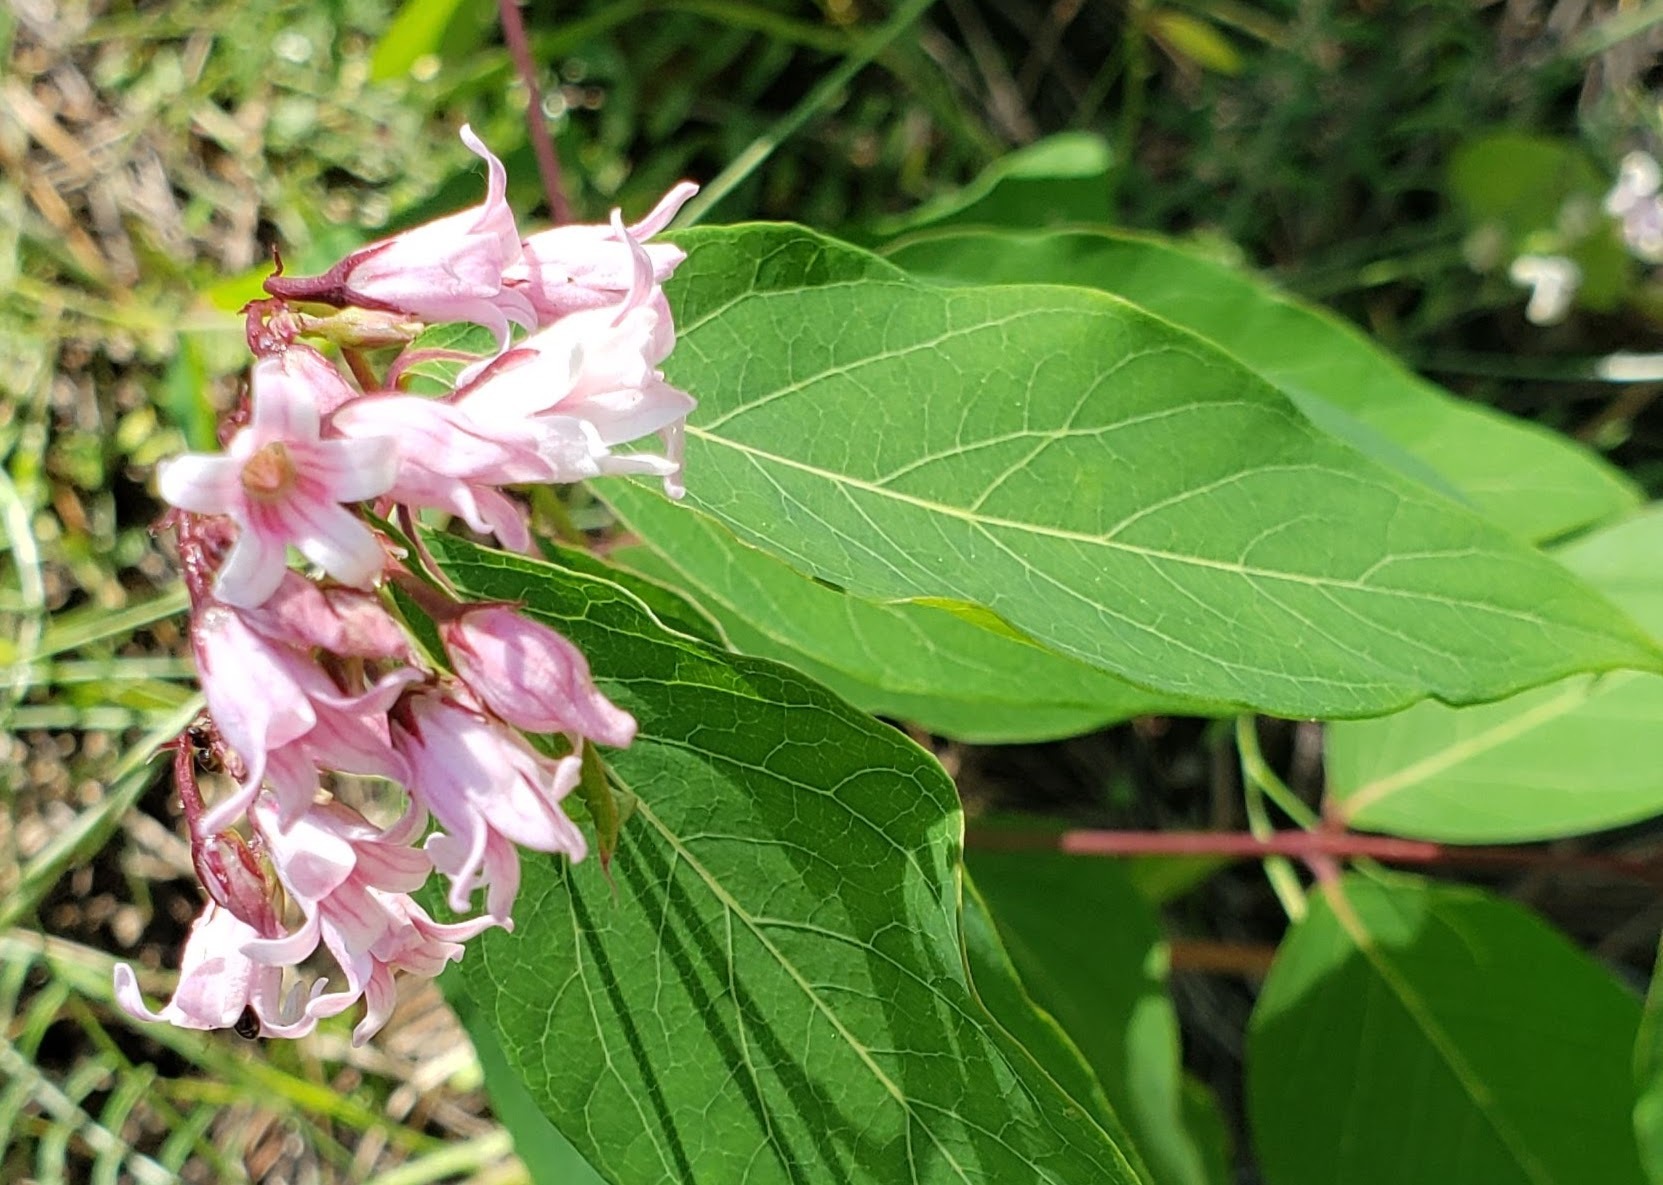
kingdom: Plantae
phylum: Tracheophyta
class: Magnoliopsida
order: Gentianales
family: Apocynaceae
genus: Apocynum
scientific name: Apocynum androsaemifolium
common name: Spreading dogbane
